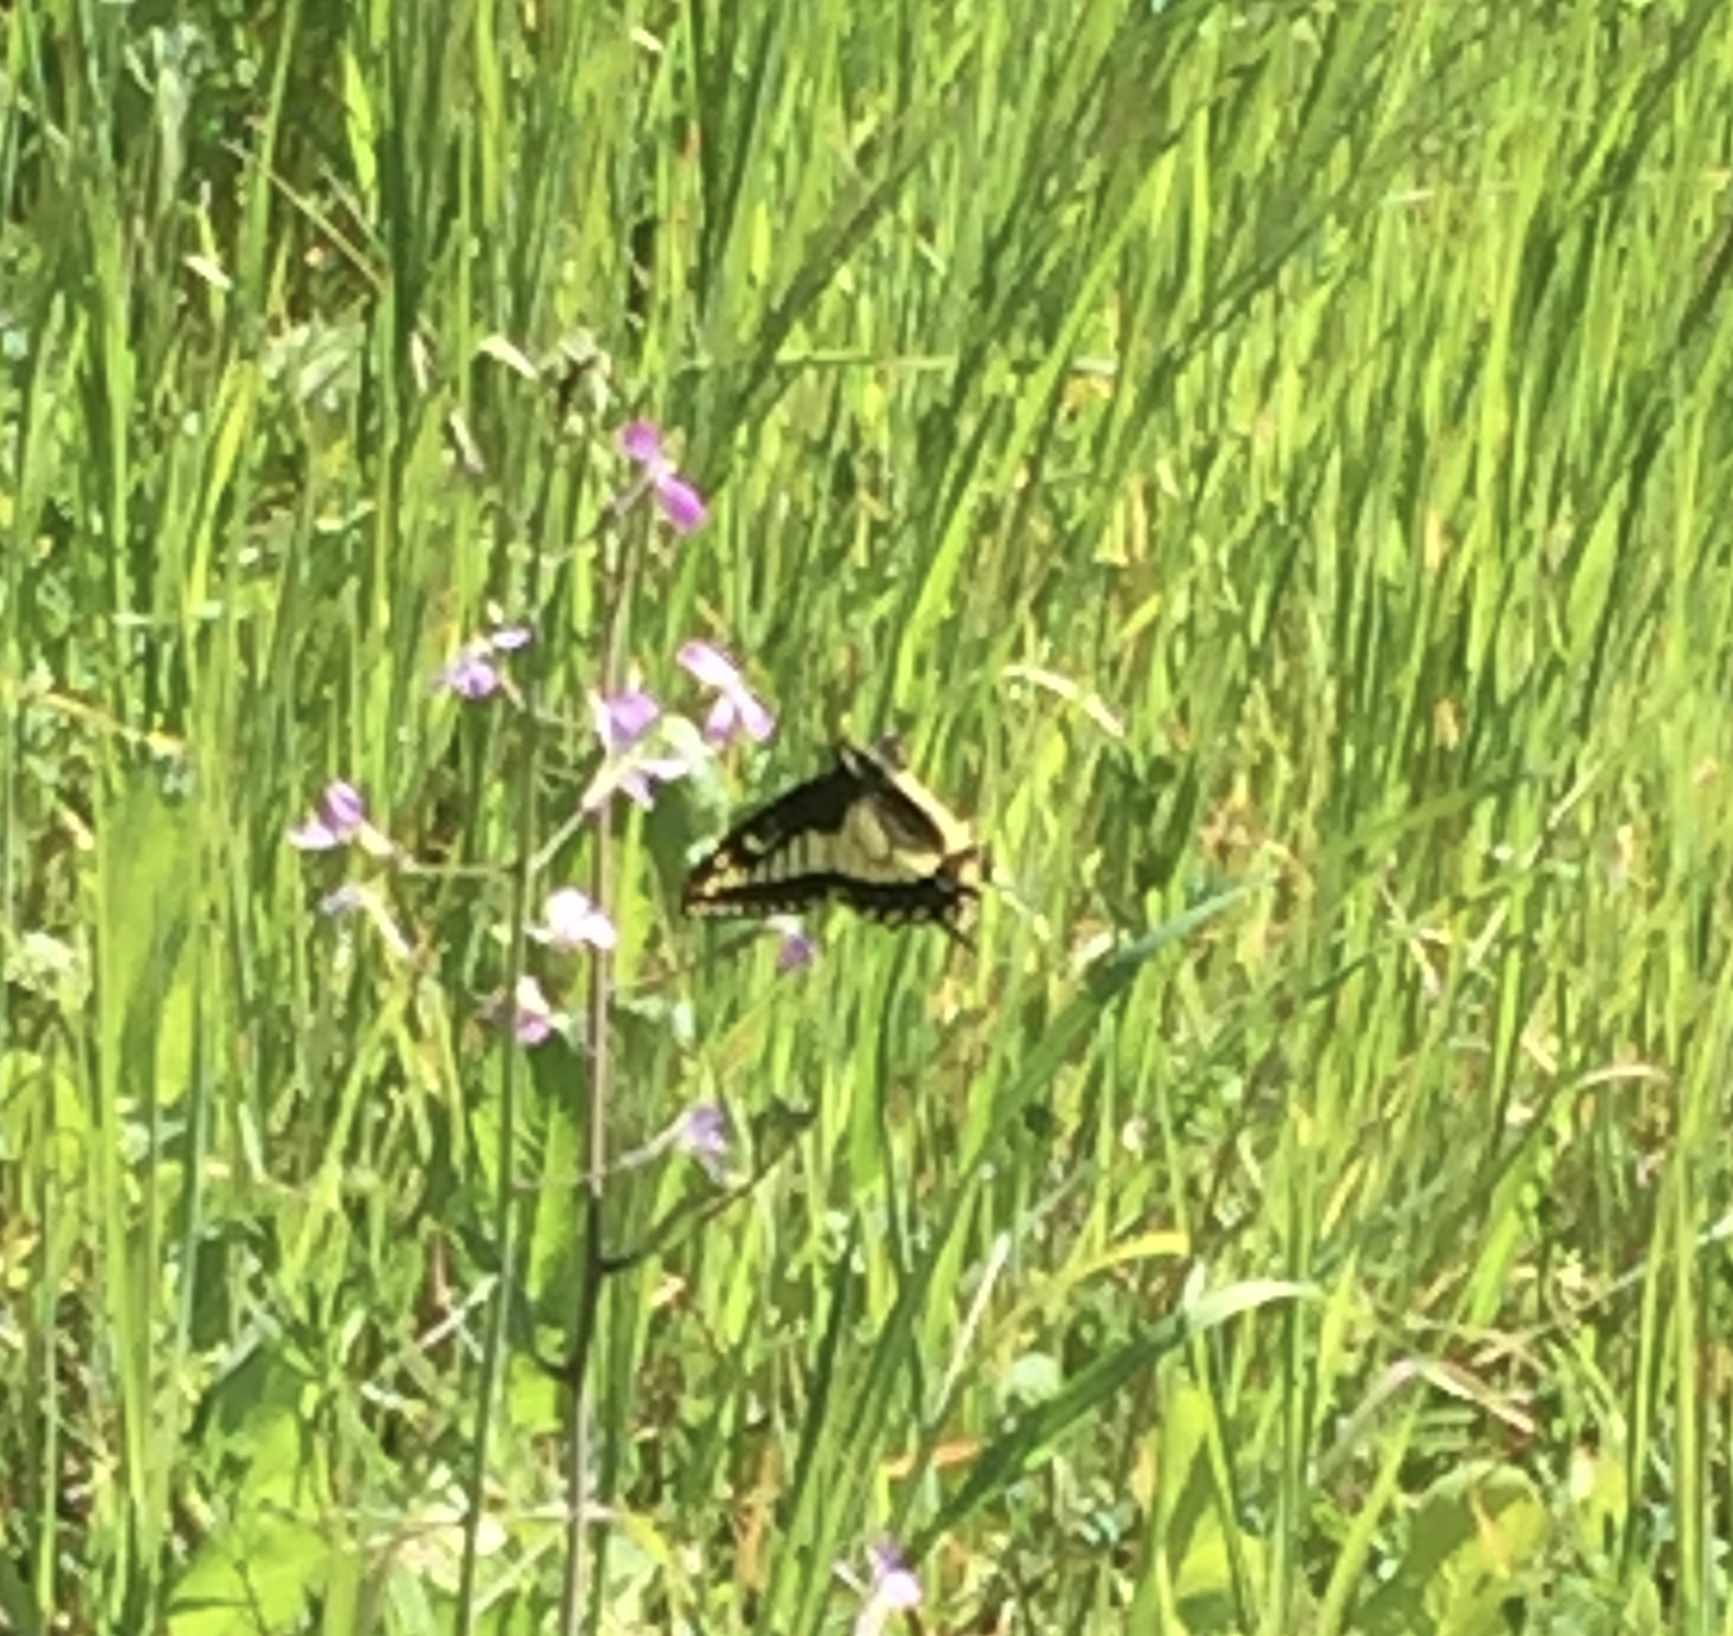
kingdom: Animalia
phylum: Arthropoda
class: Insecta
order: Lepidoptera
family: Papilionidae
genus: Papilio
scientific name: Papilio zelicaon
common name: Anise swallowtail
